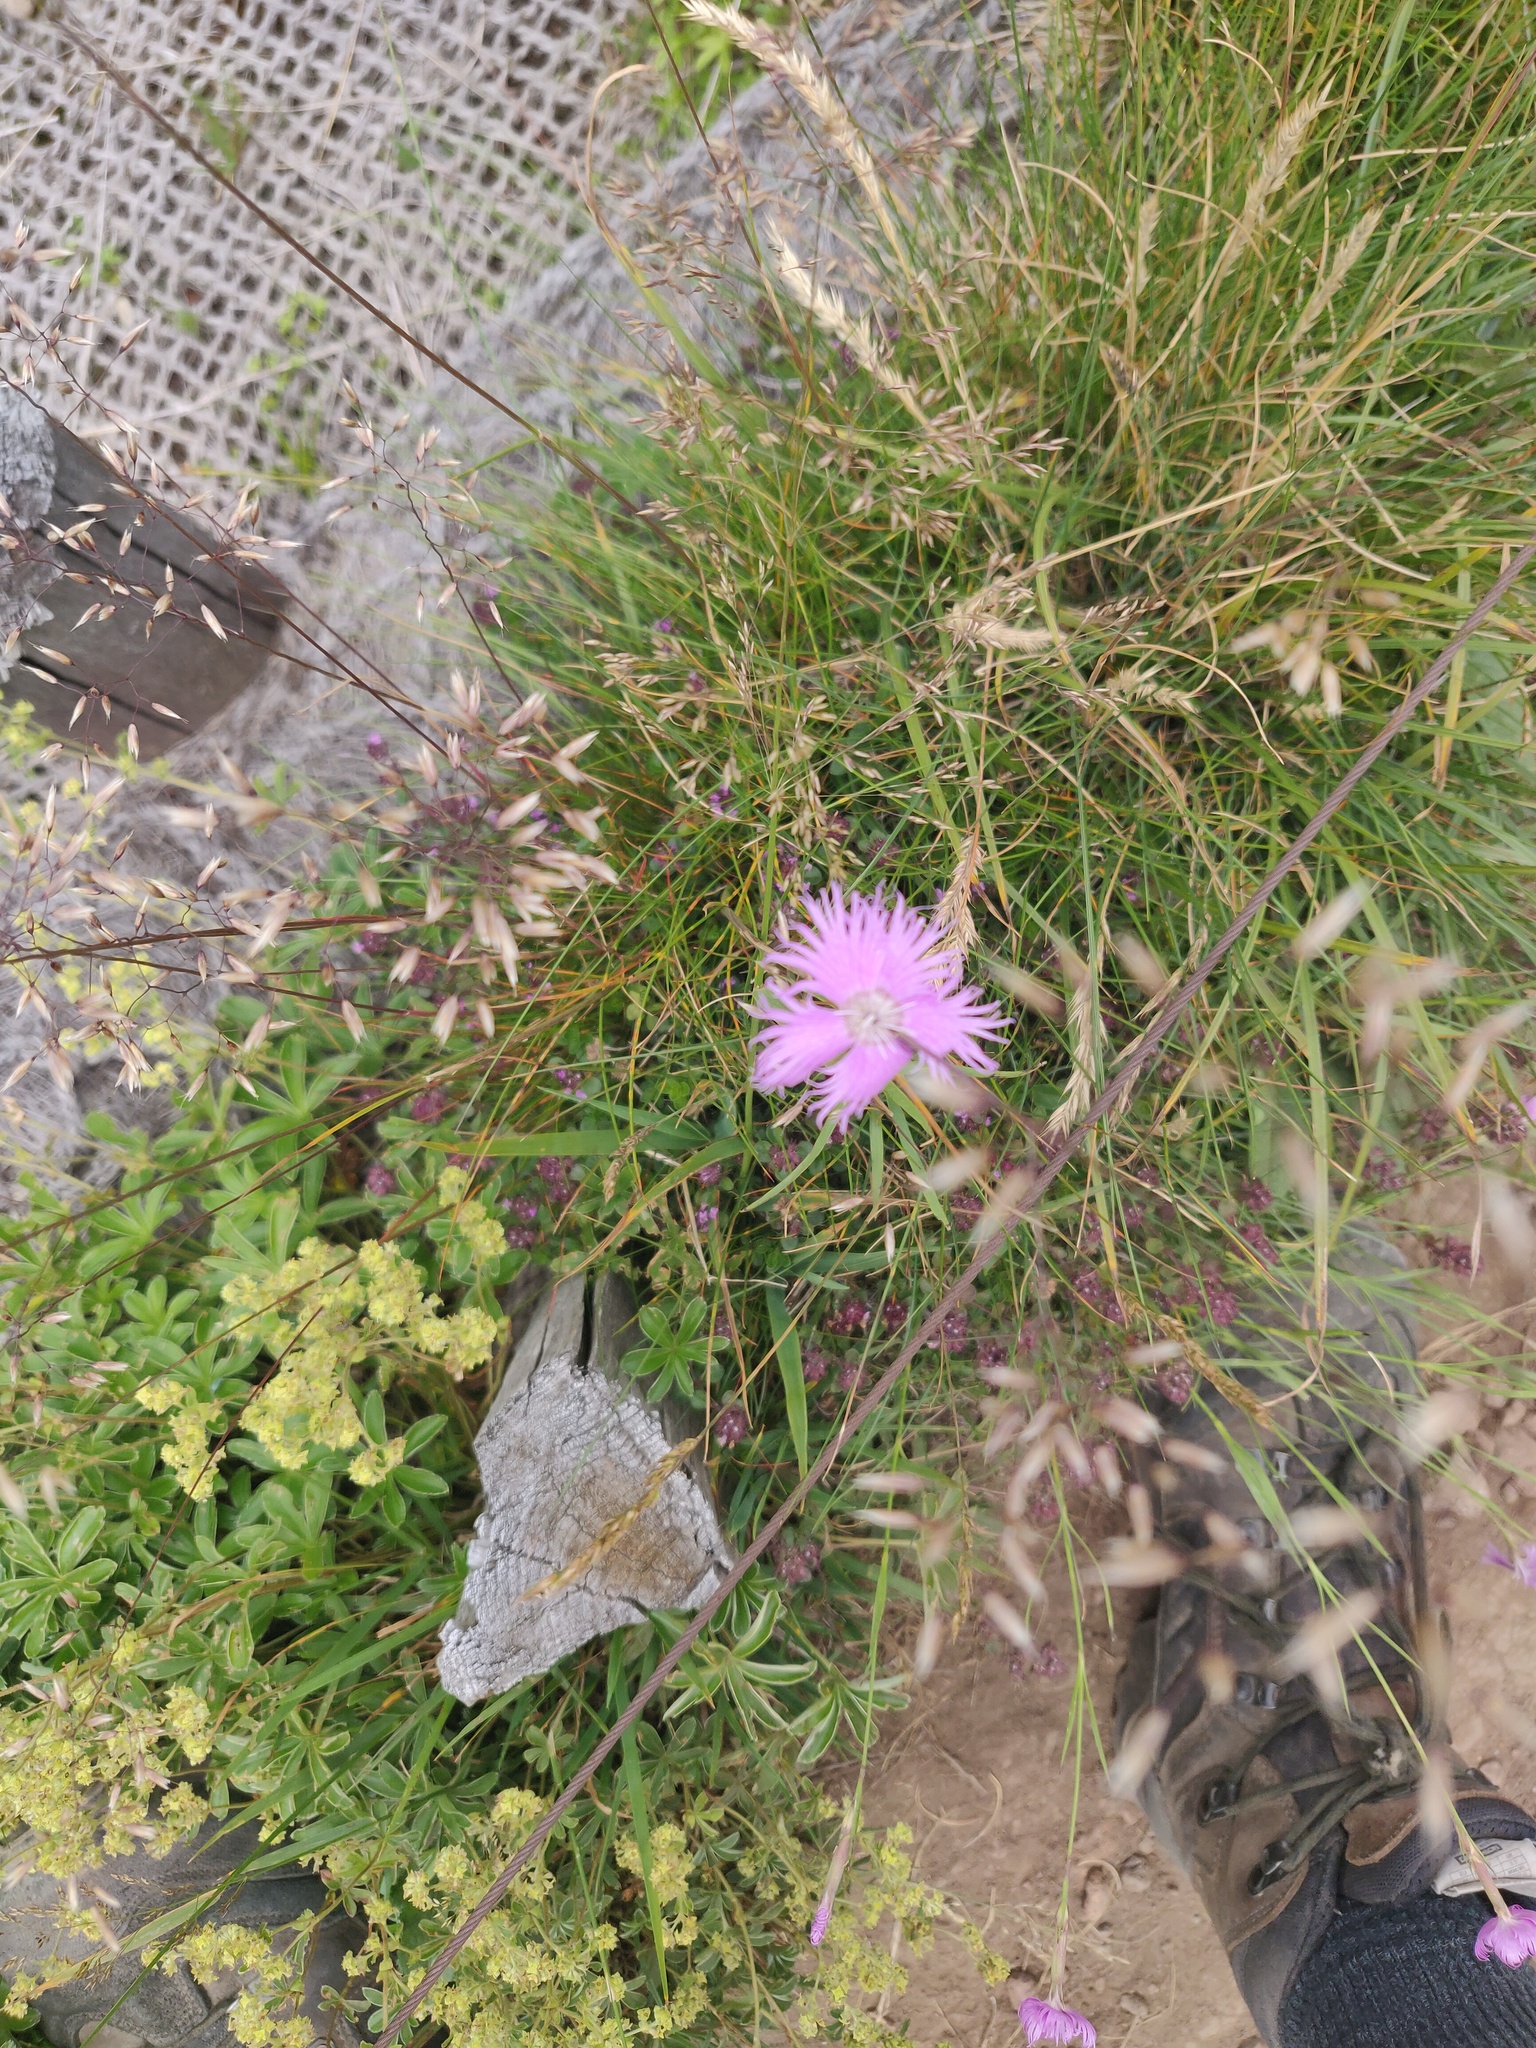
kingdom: Plantae
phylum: Tracheophyta
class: Magnoliopsida
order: Caryophyllales
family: Caryophyllaceae
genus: Dianthus
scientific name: Dianthus hyssopifolius
